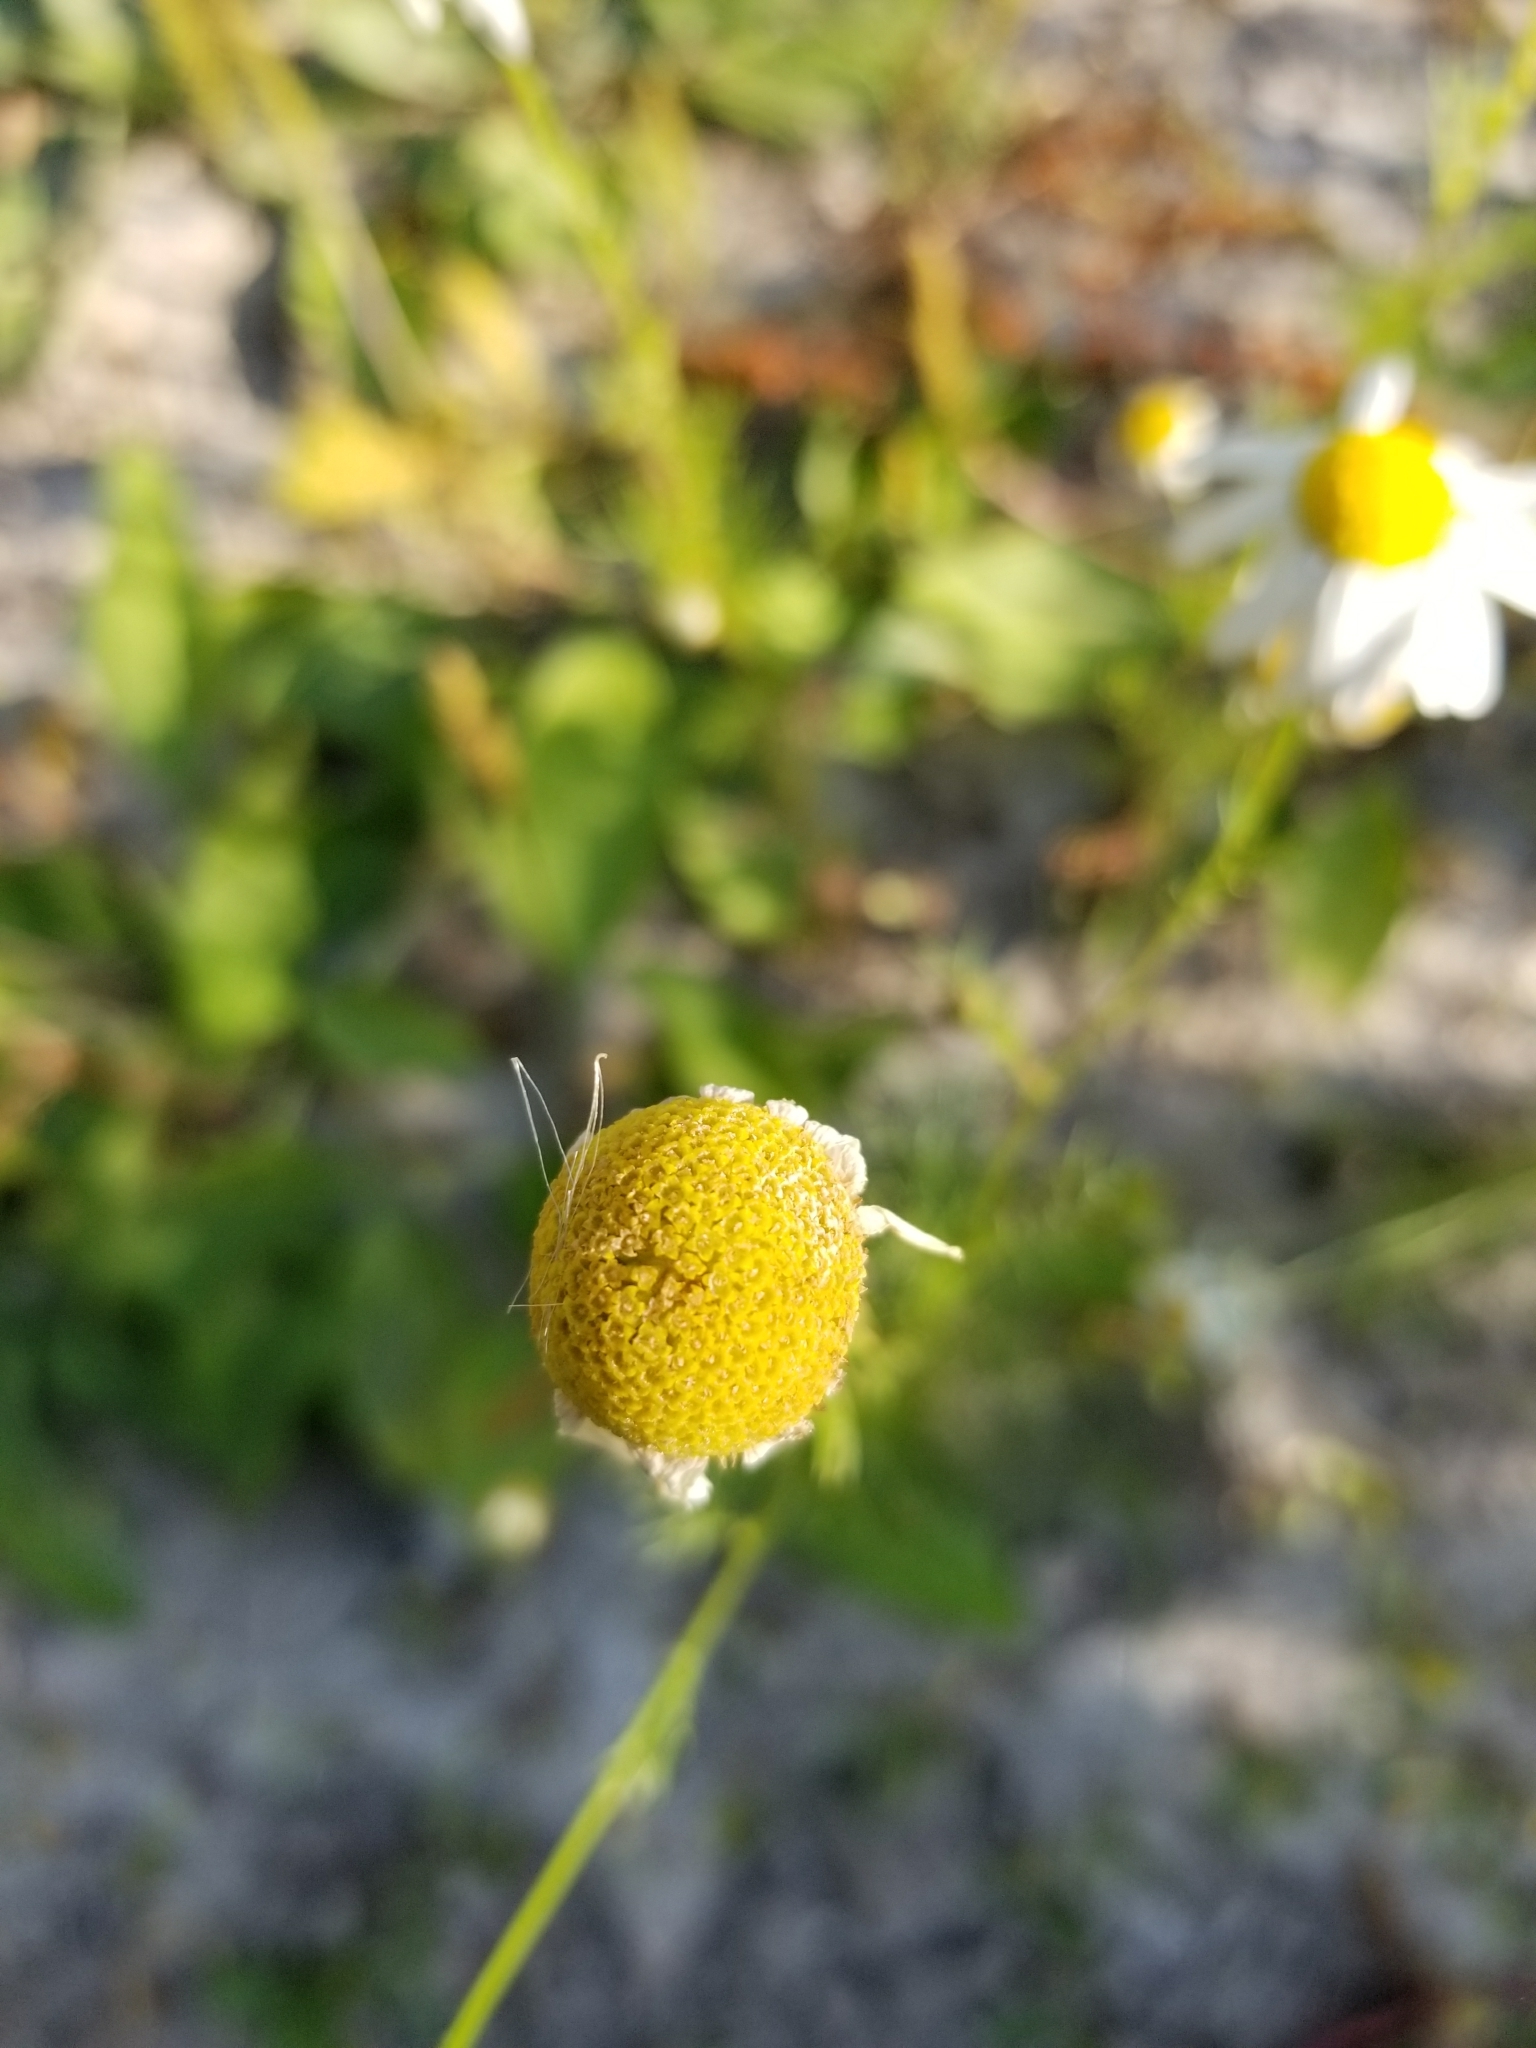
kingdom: Plantae
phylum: Tracheophyta
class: Magnoliopsida
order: Asterales
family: Asteraceae
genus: Anthemis
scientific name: Anthemis cotula
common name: Stinking chamomile
